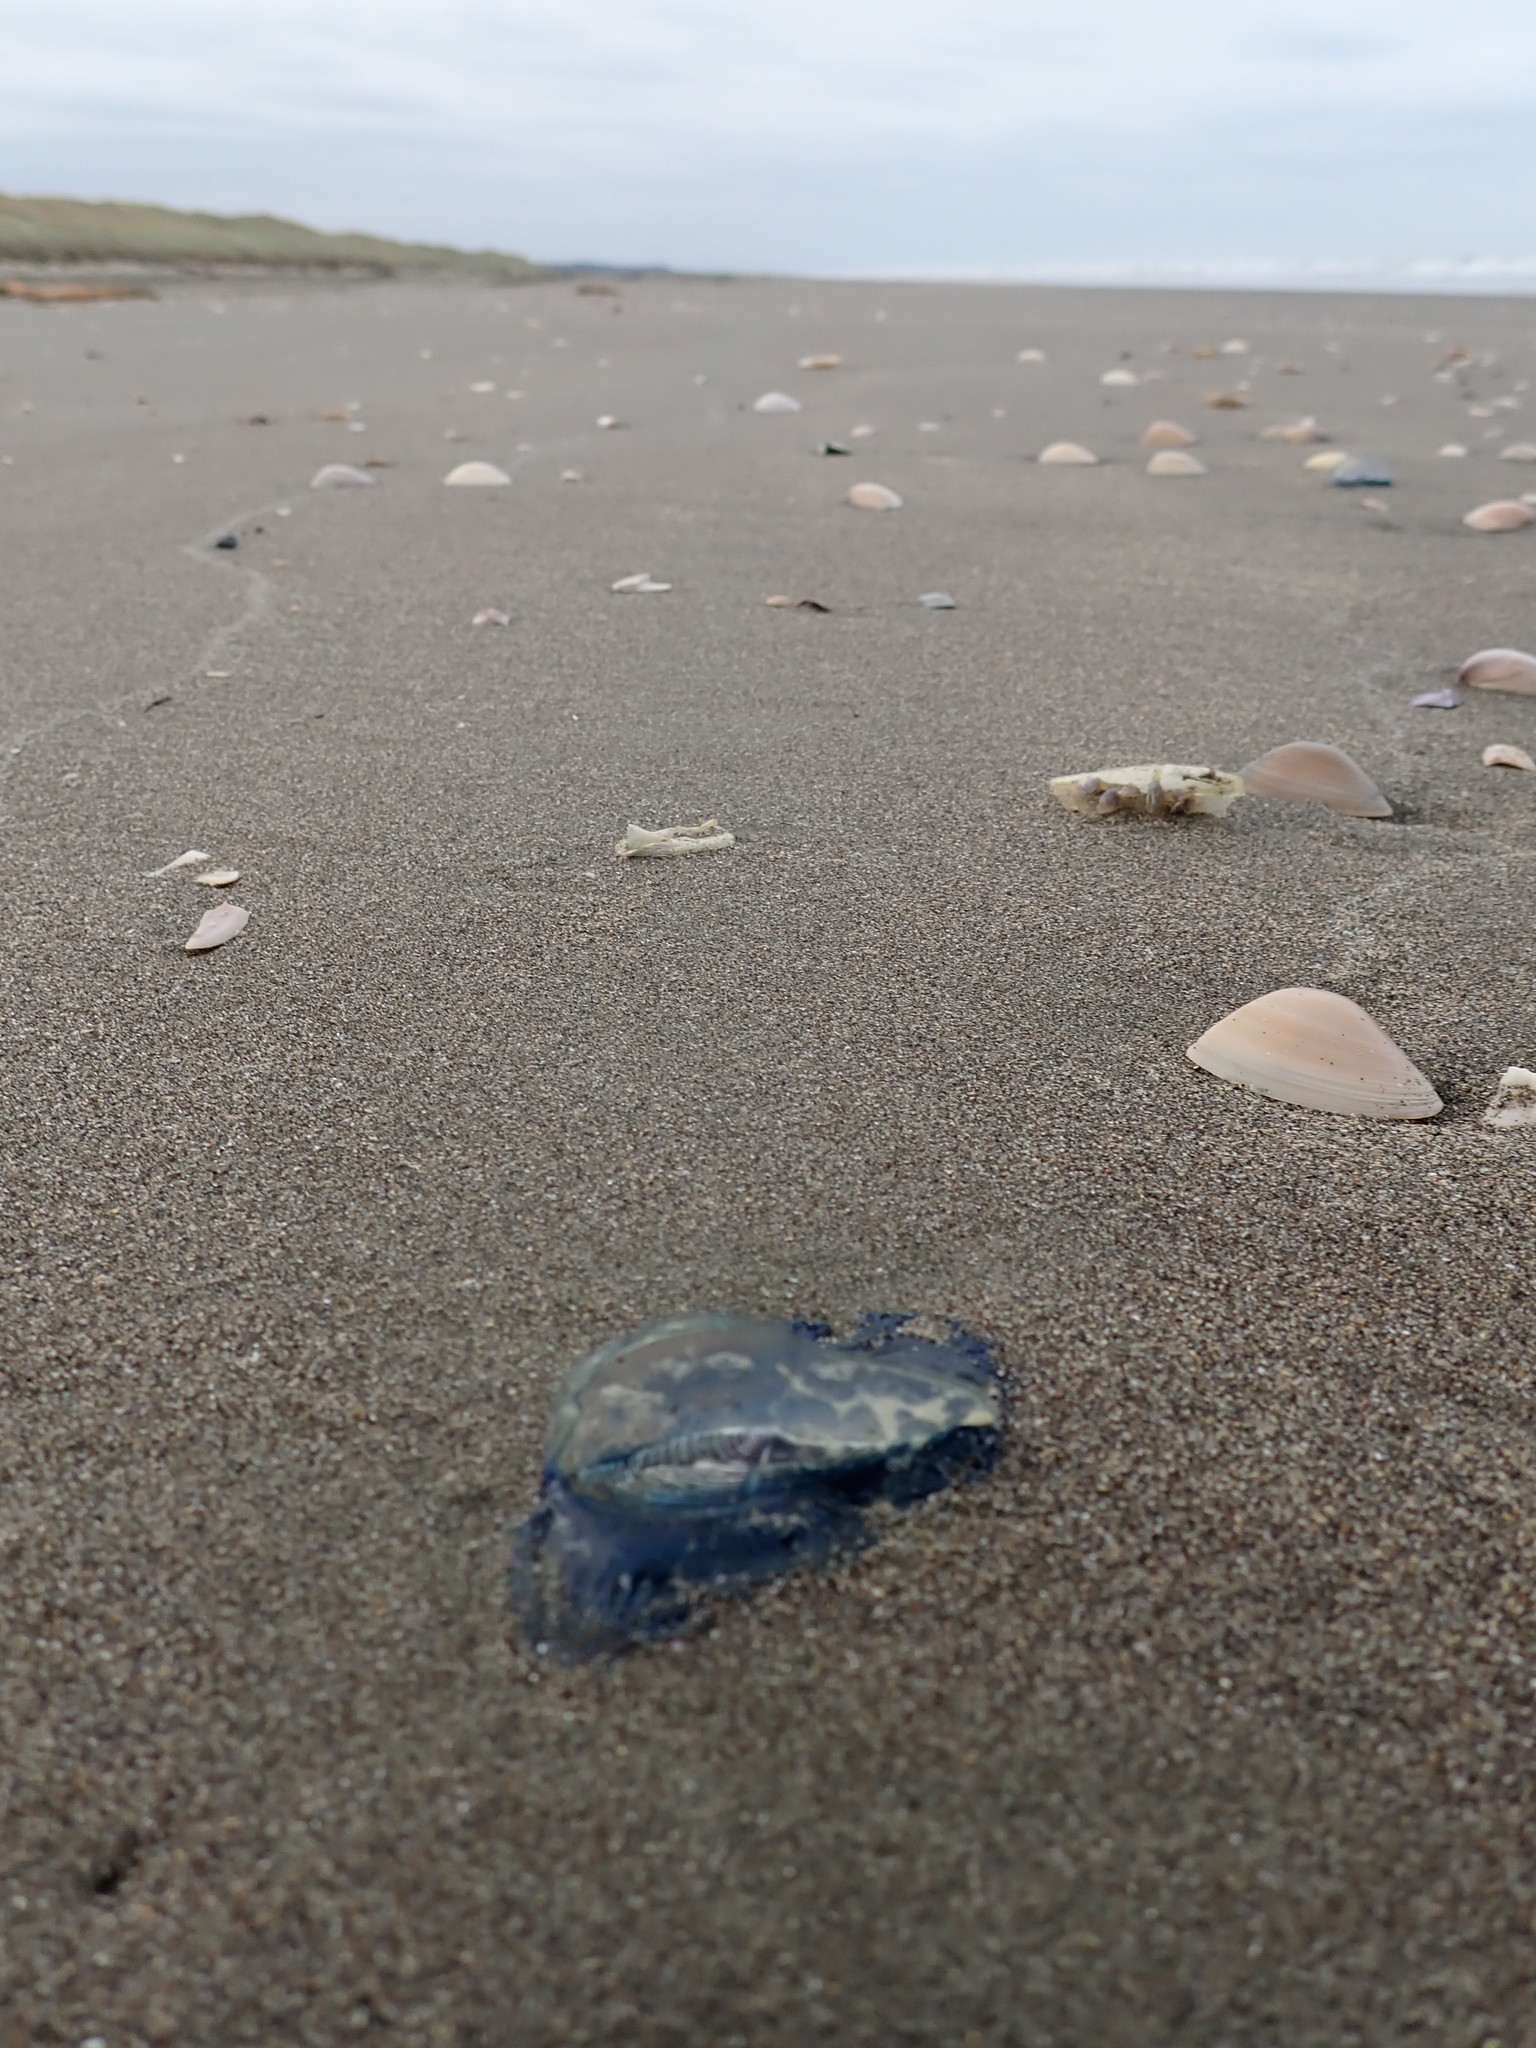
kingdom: Animalia
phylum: Cnidaria
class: Hydrozoa
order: Anthoathecata
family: Porpitidae
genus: Velella
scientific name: Velella velella
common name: By-the-wind-sailor
